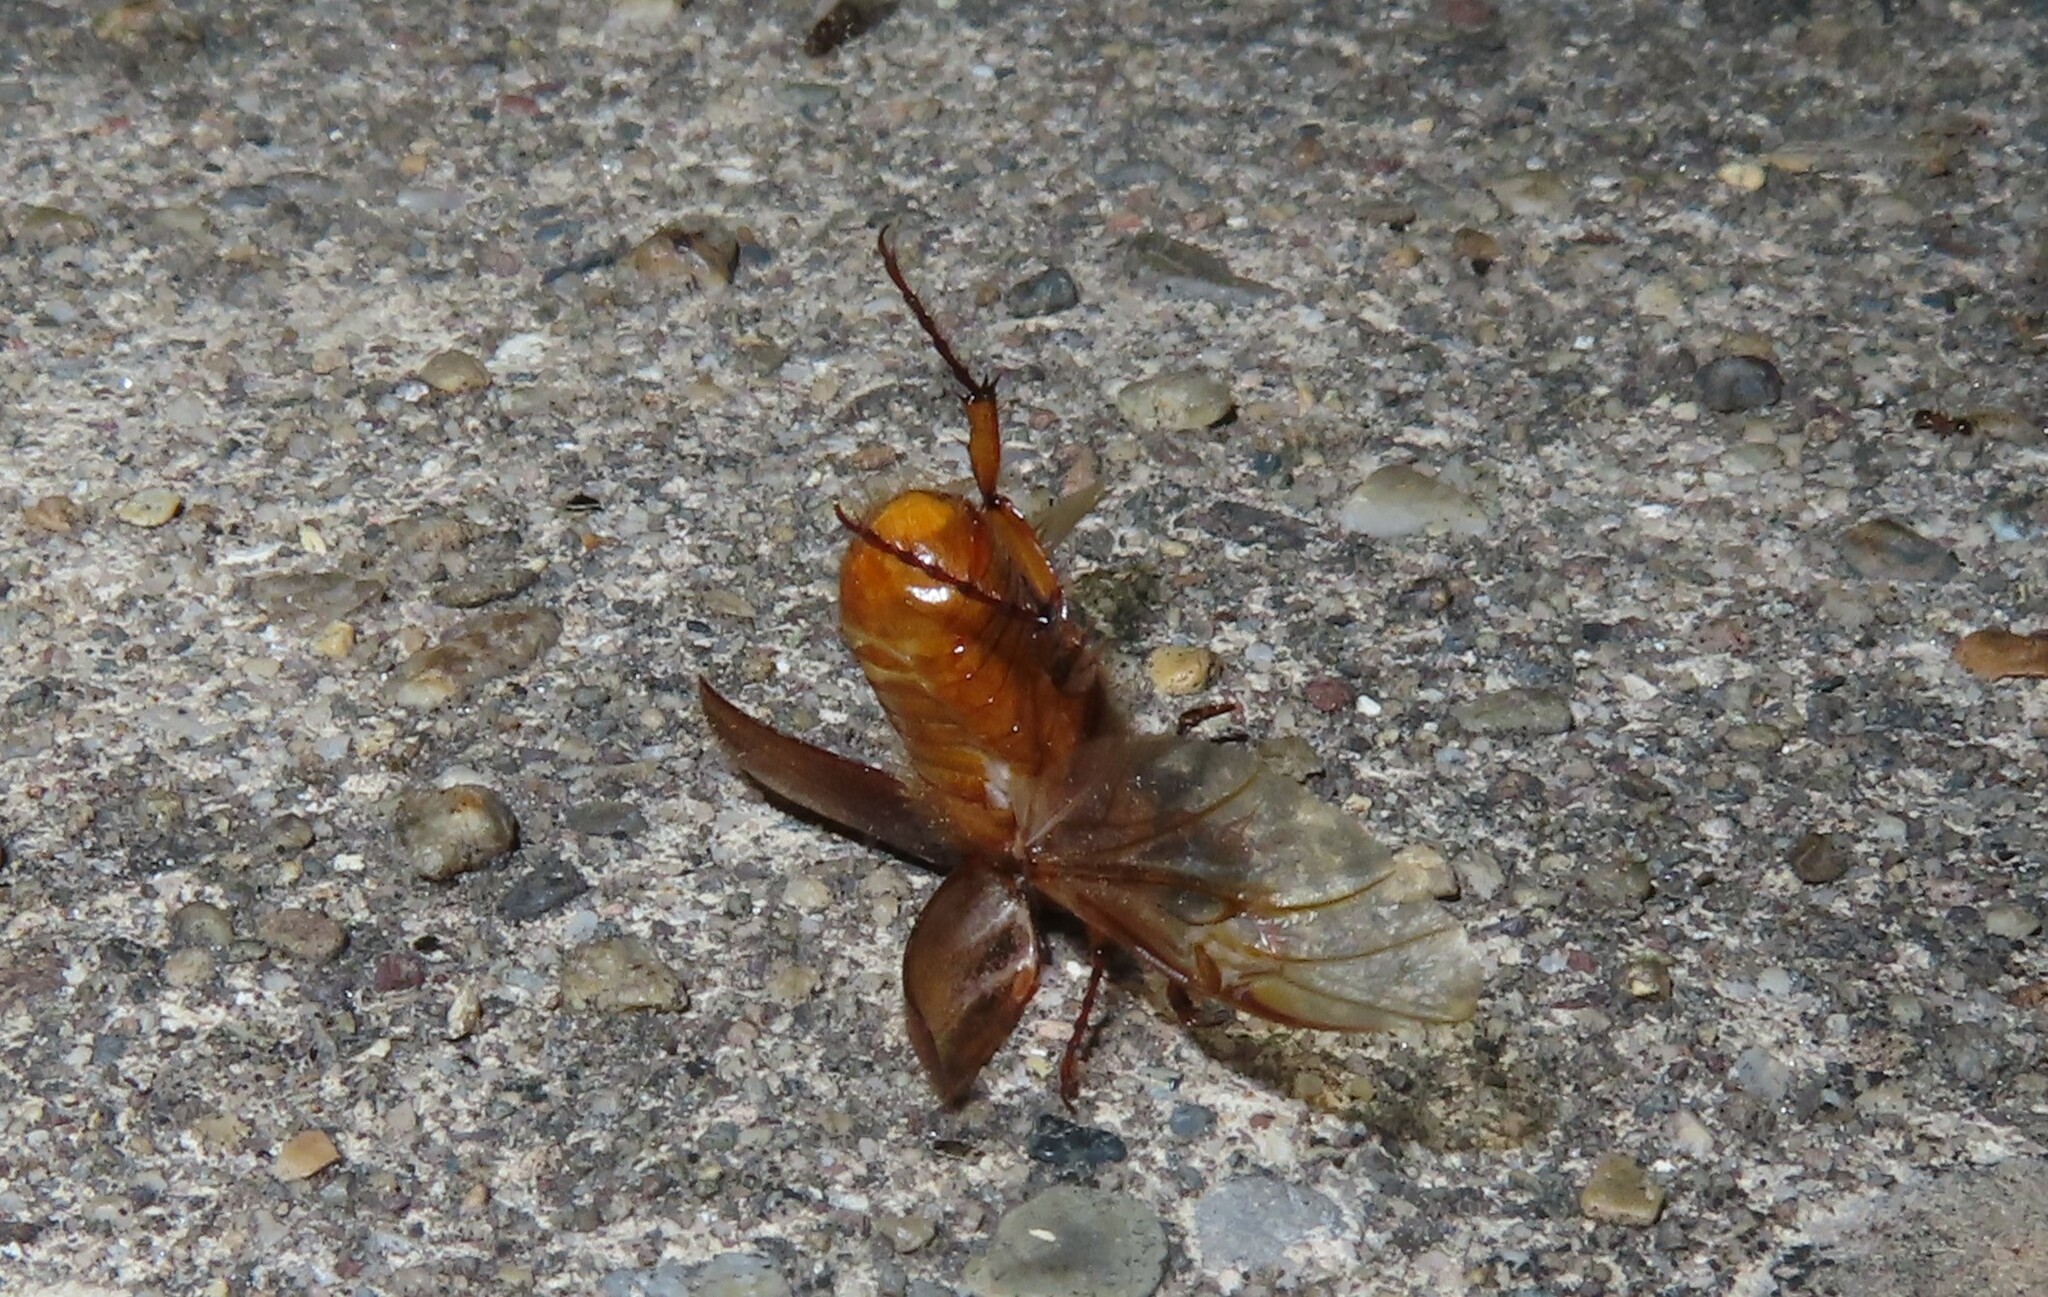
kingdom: Animalia
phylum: Arthropoda
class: Insecta
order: Coleoptera
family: Scarabaeidae
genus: Cyclocephala
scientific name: Cyclocephala lurida
